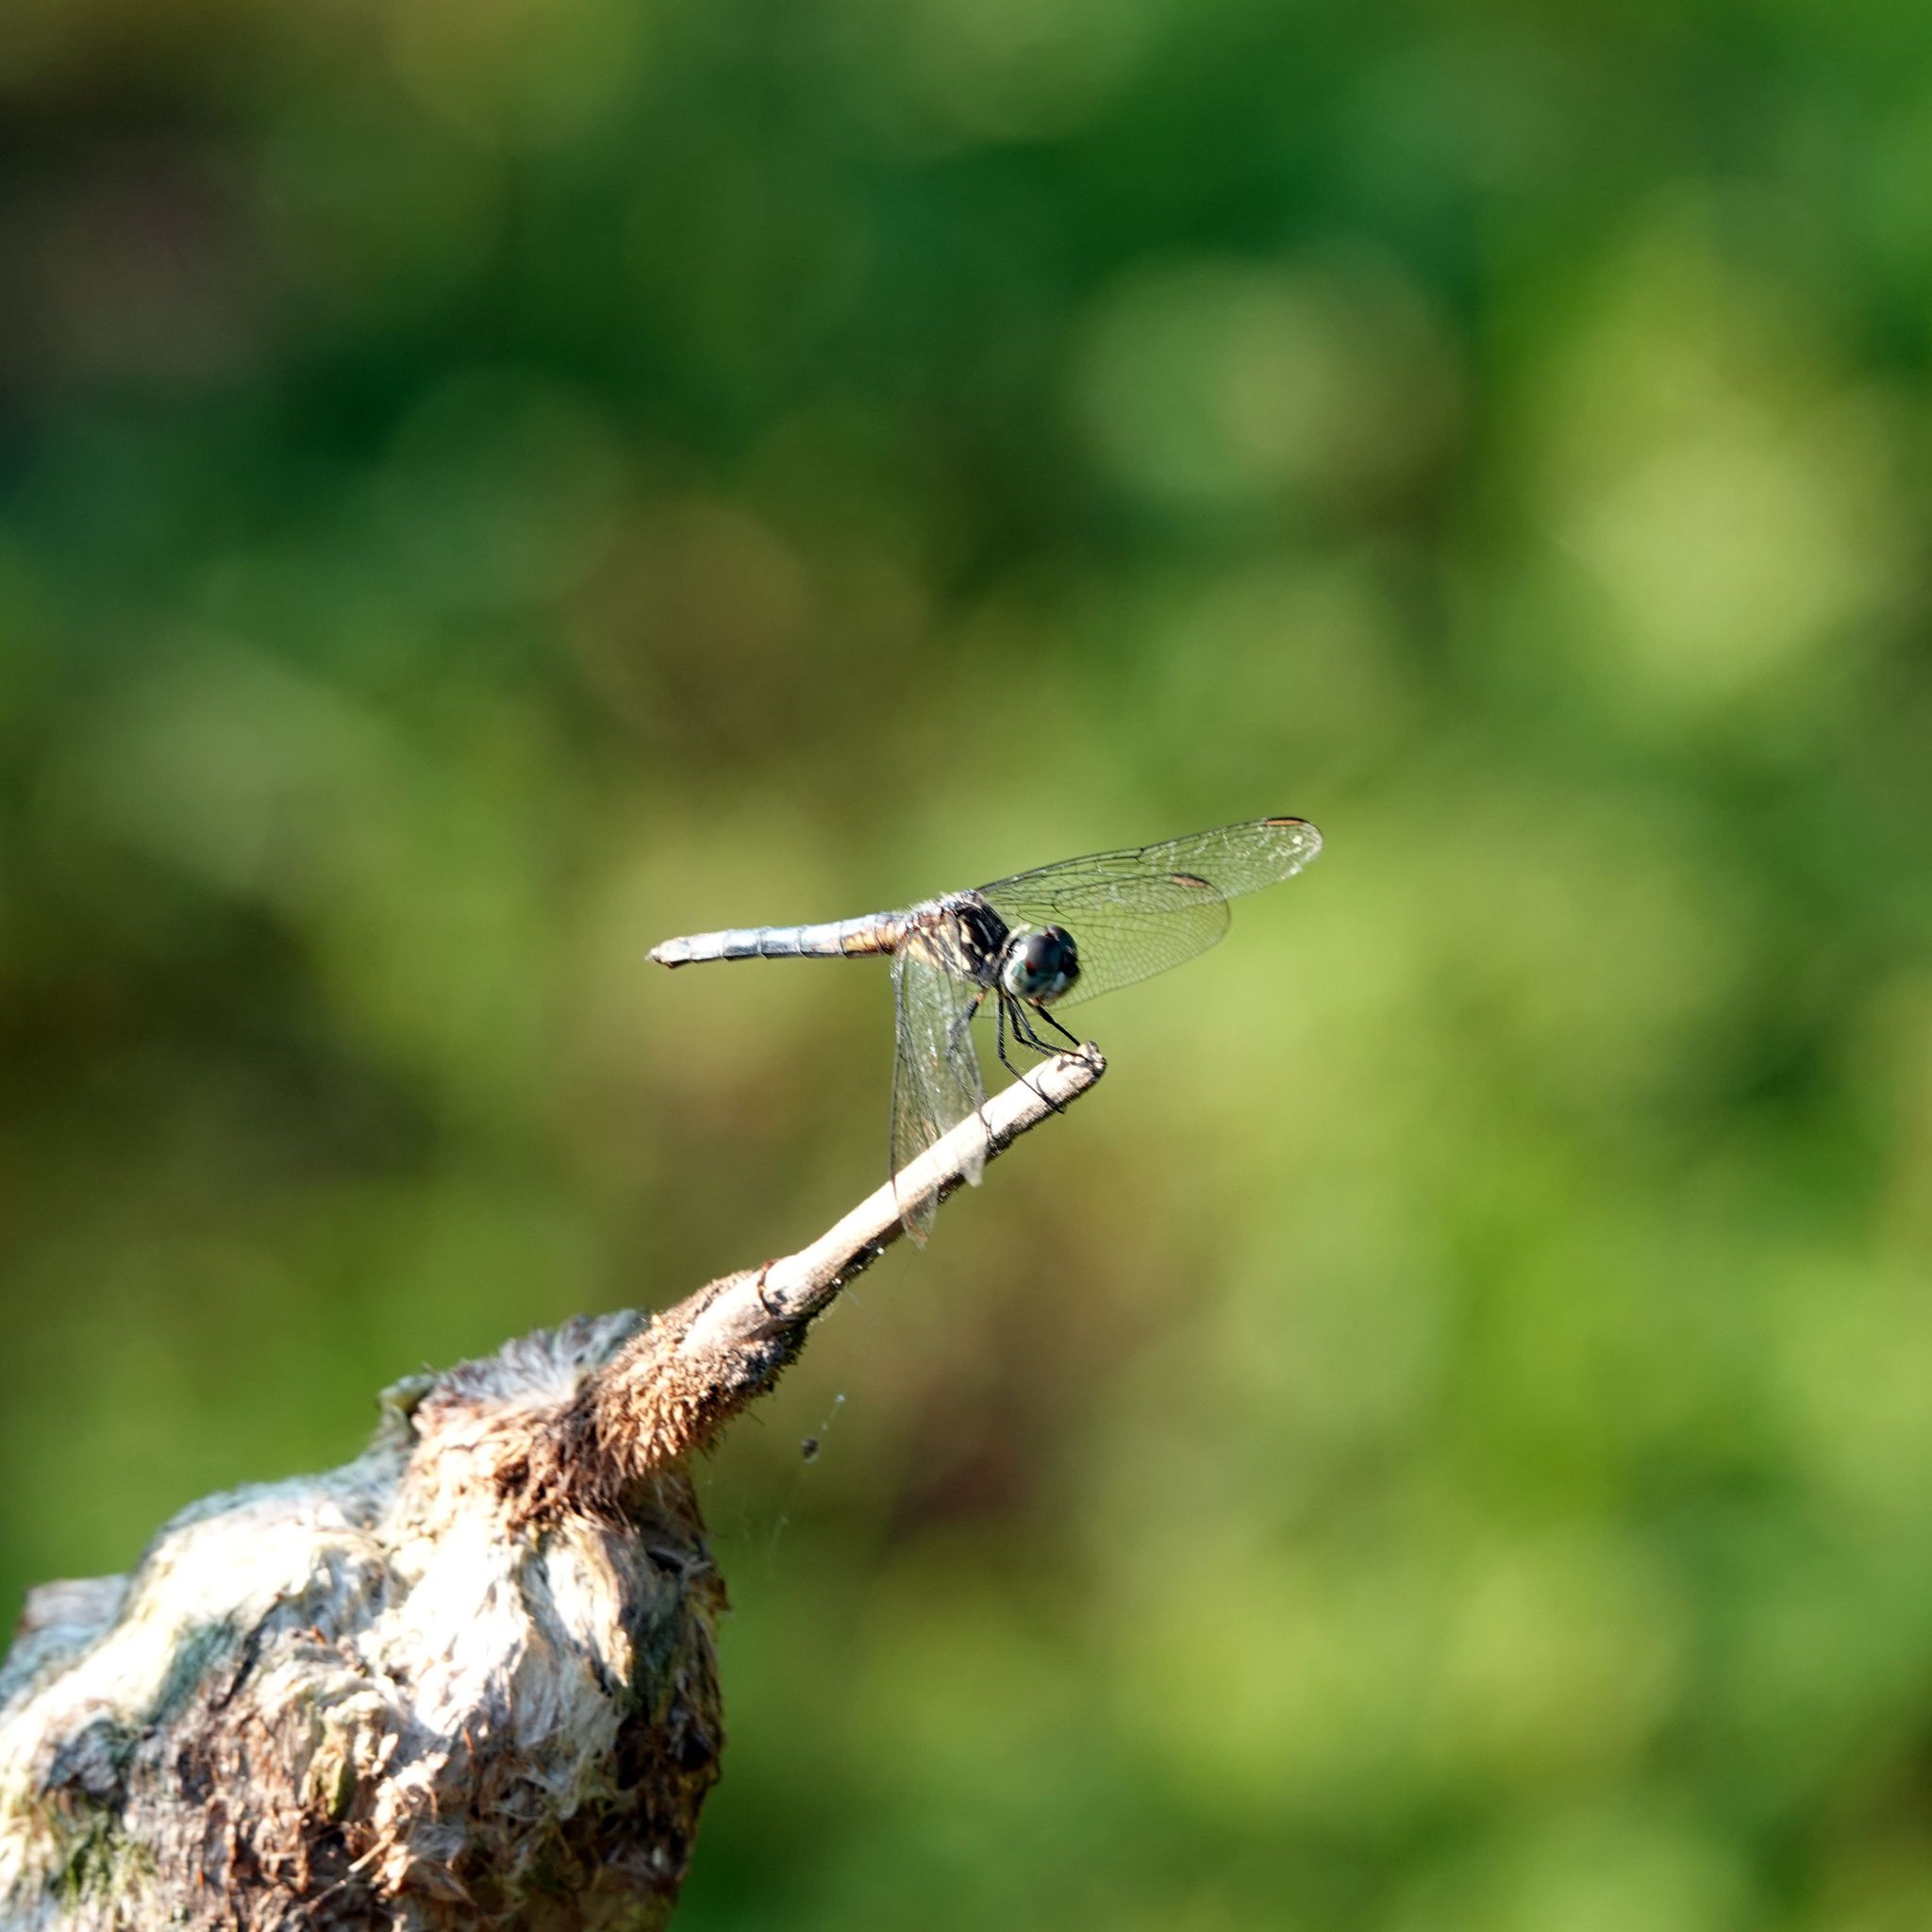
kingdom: Animalia
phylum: Arthropoda
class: Insecta
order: Odonata
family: Libellulidae
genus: Pachydiplax
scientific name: Pachydiplax longipennis
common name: Blue dasher
